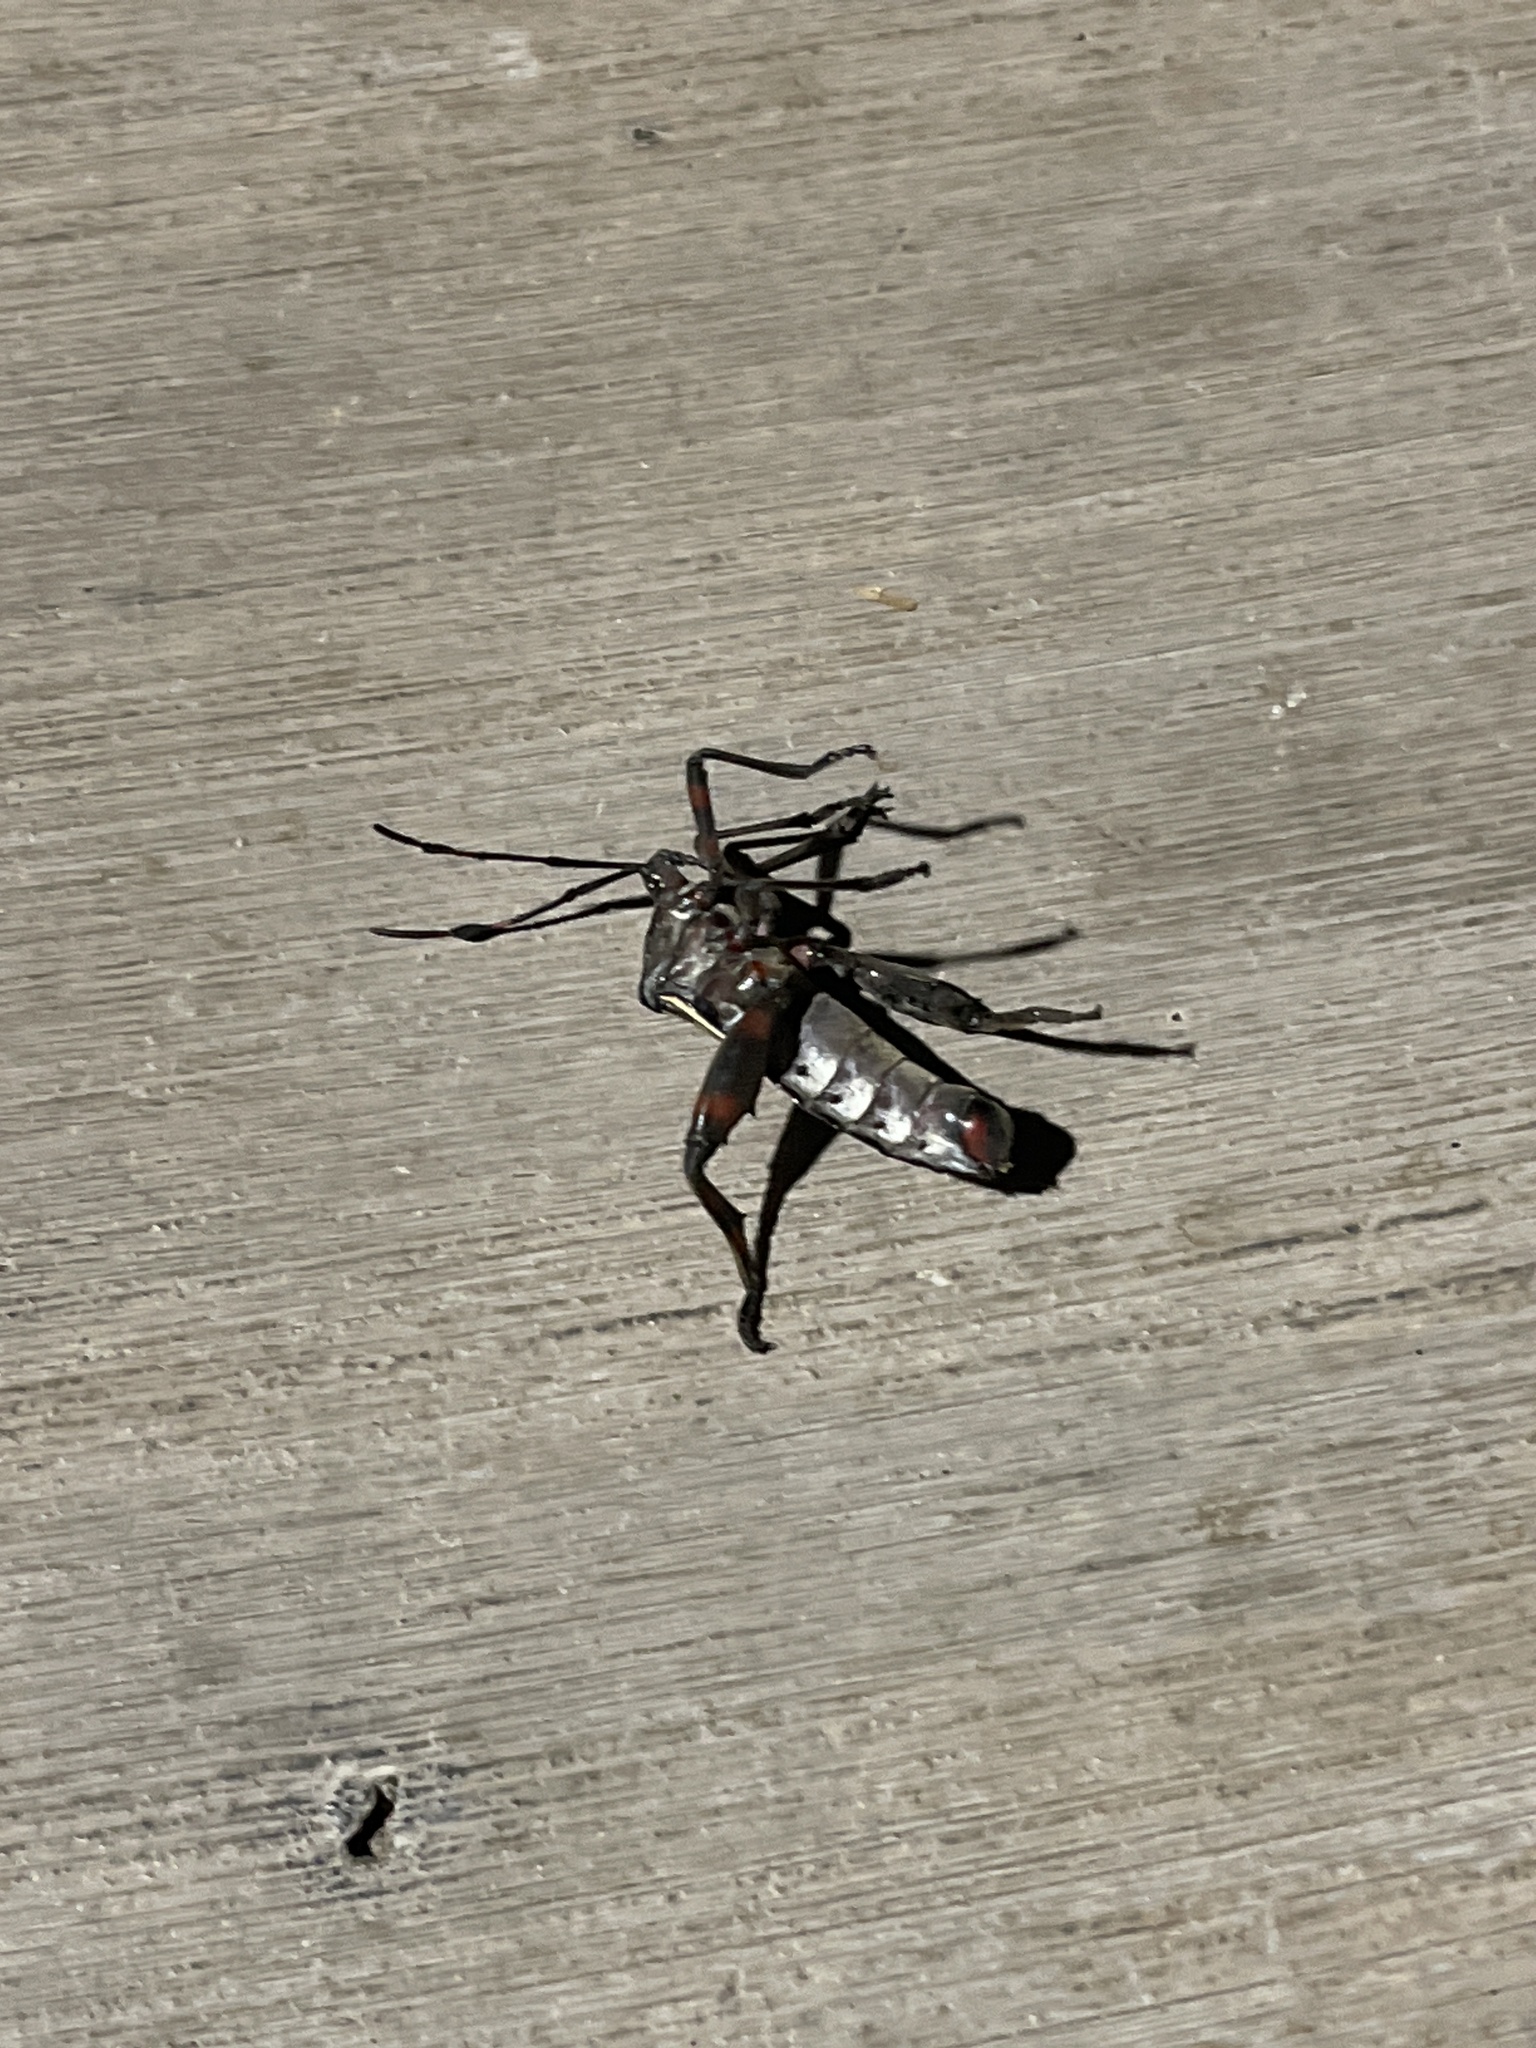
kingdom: Animalia
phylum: Arthropoda
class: Insecta
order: Hemiptera
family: Coreidae
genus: Thasus
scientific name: Thasus neocalifornicus
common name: Giant mesquite bug
